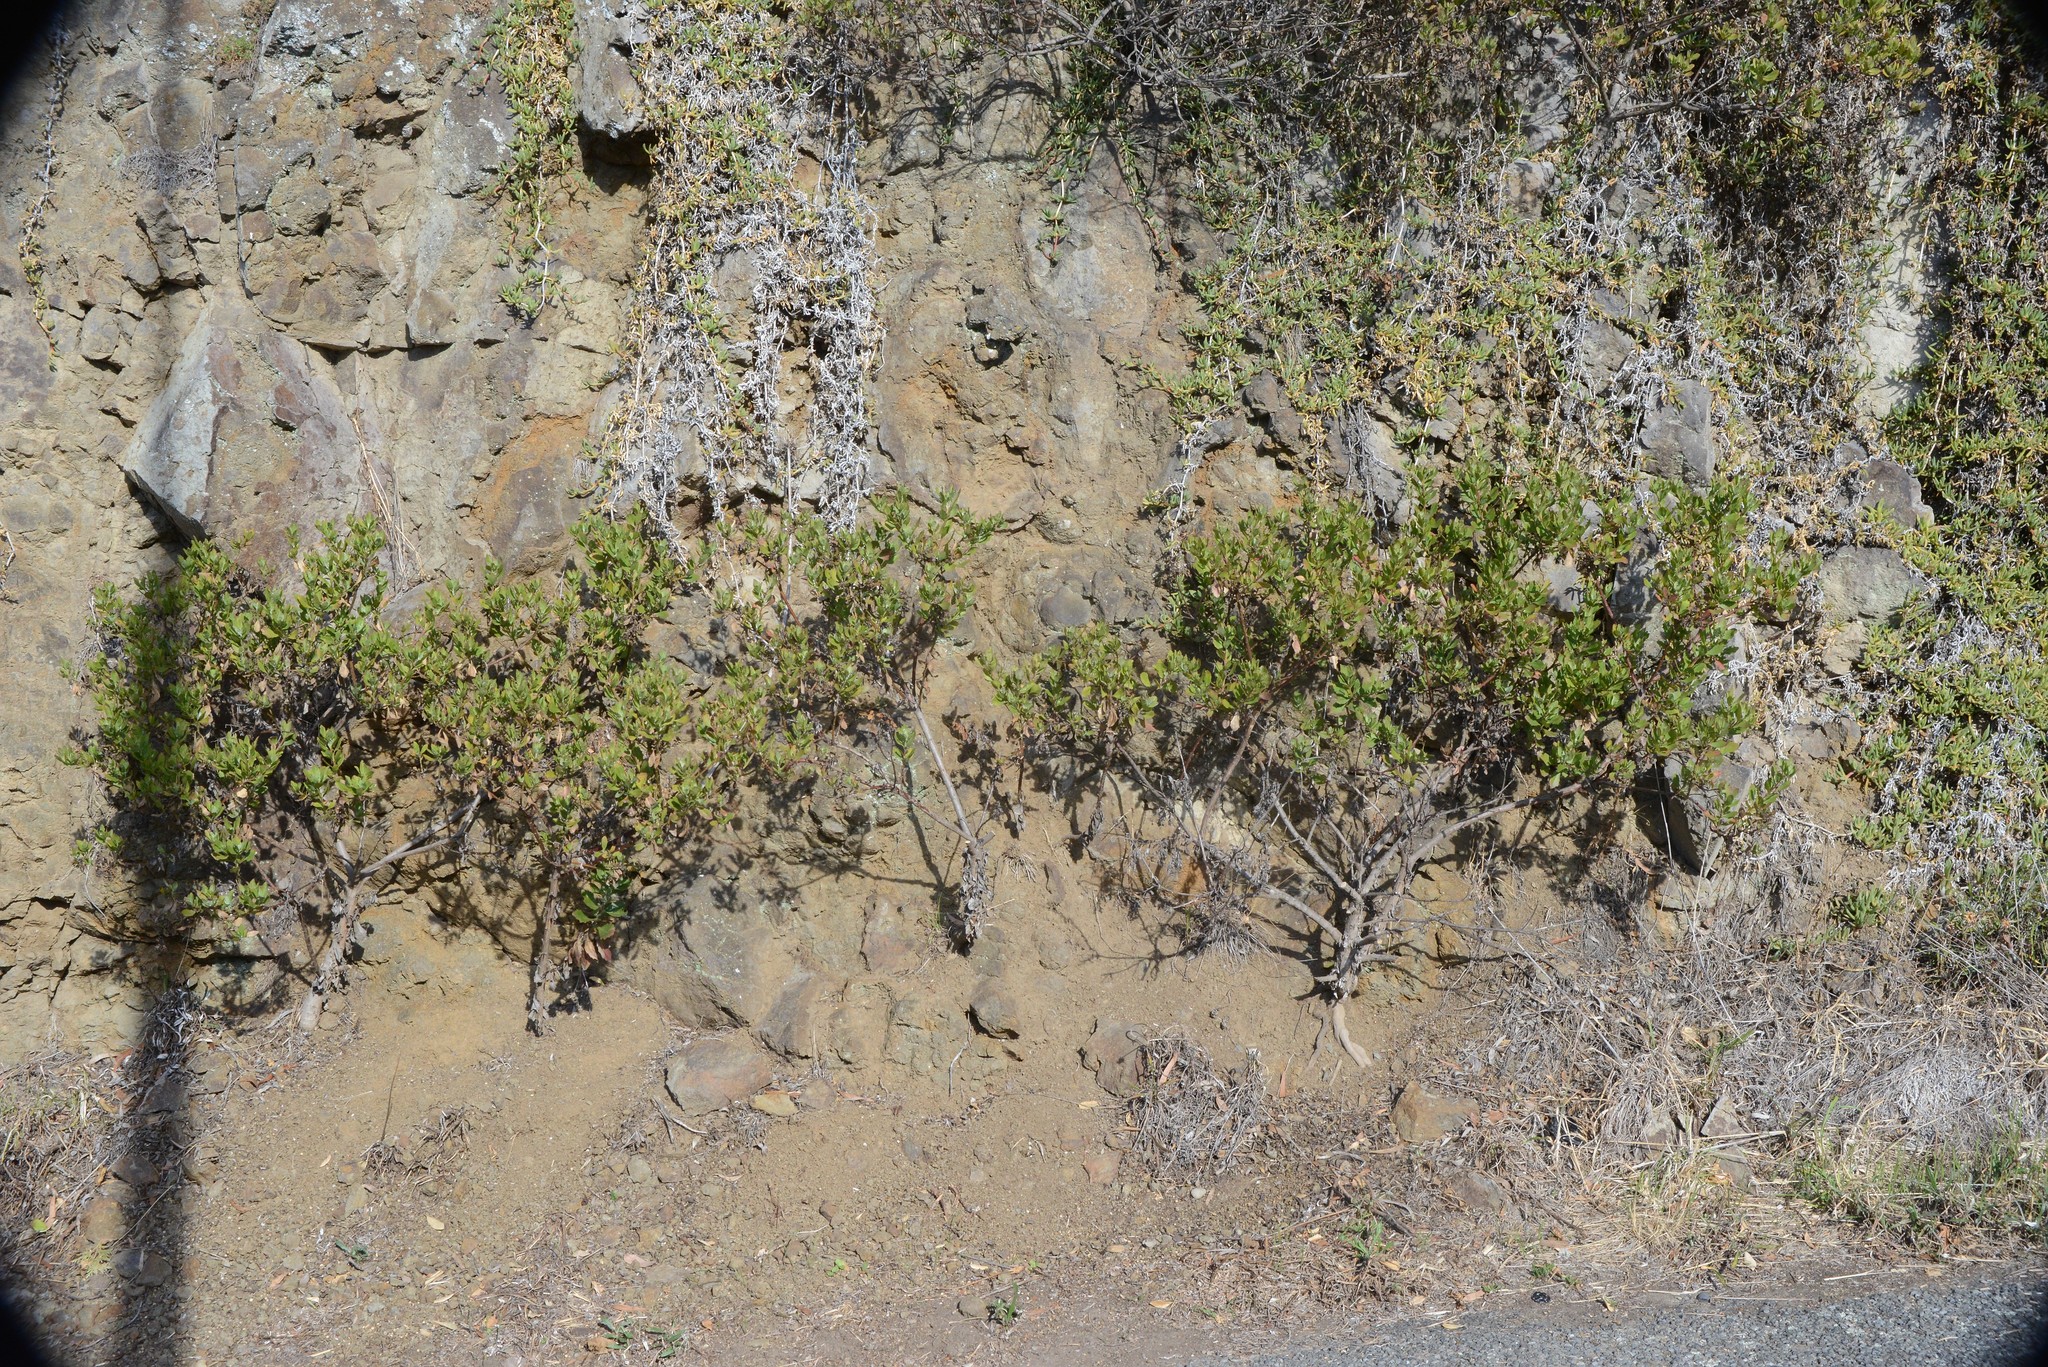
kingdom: Plantae
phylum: Tracheophyta
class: Magnoliopsida
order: Asterales
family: Asteraceae
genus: Osteospermum
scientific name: Osteospermum moniliferum
